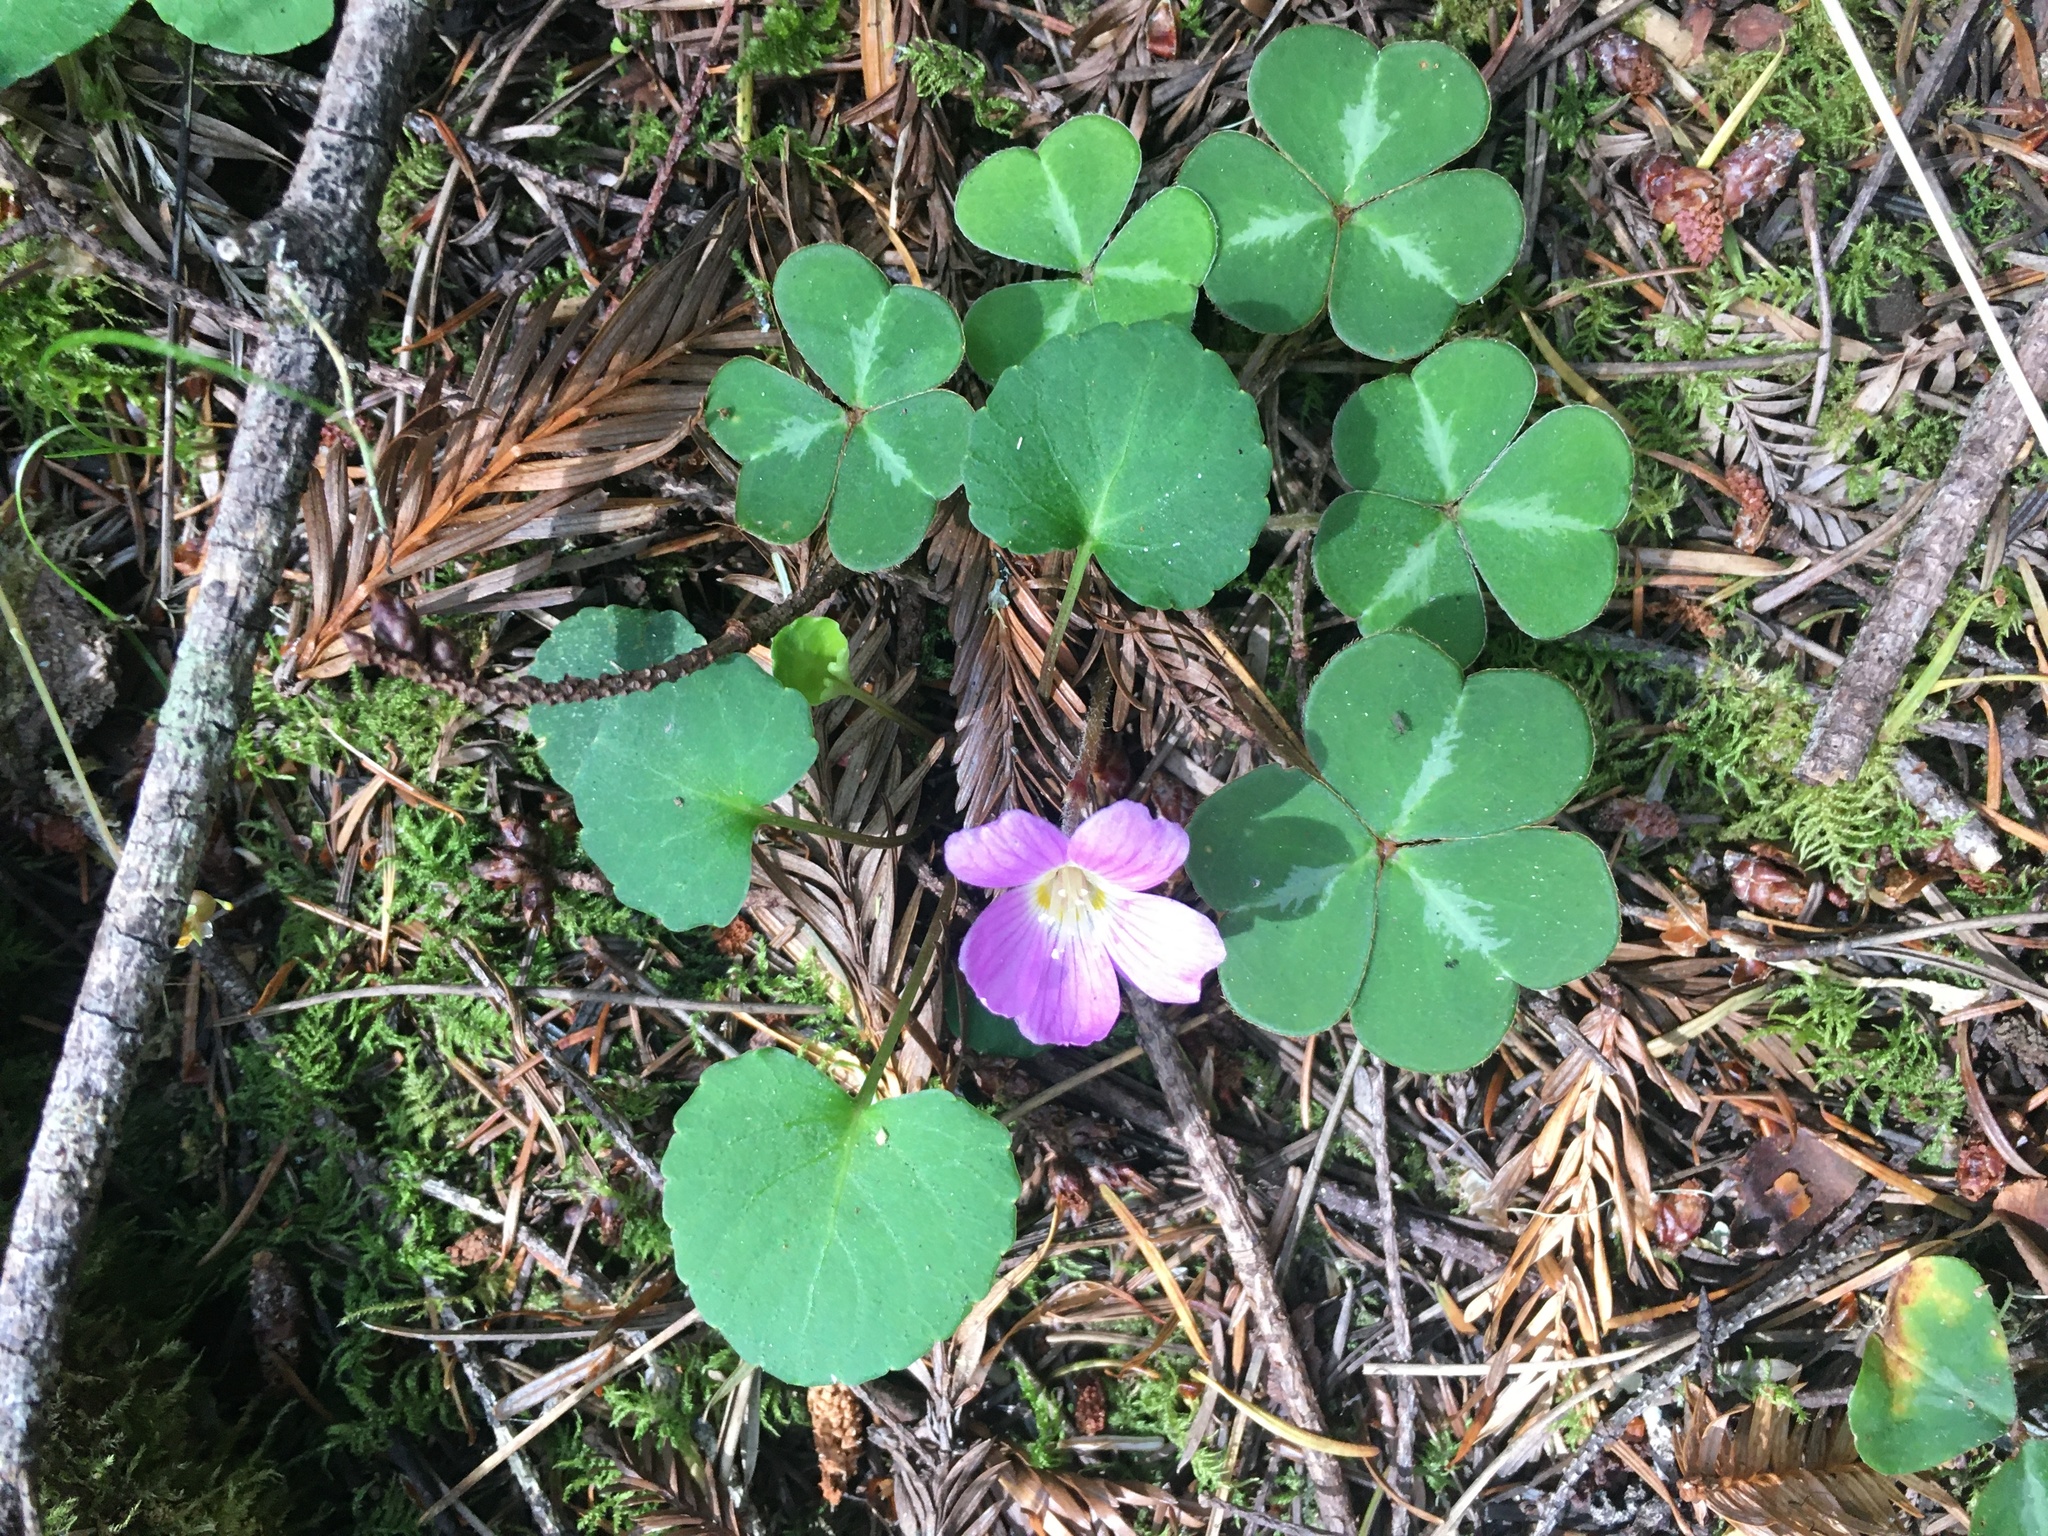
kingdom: Plantae
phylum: Tracheophyta
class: Magnoliopsida
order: Oxalidales
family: Oxalidaceae
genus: Oxalis
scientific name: Oxalis oregana
